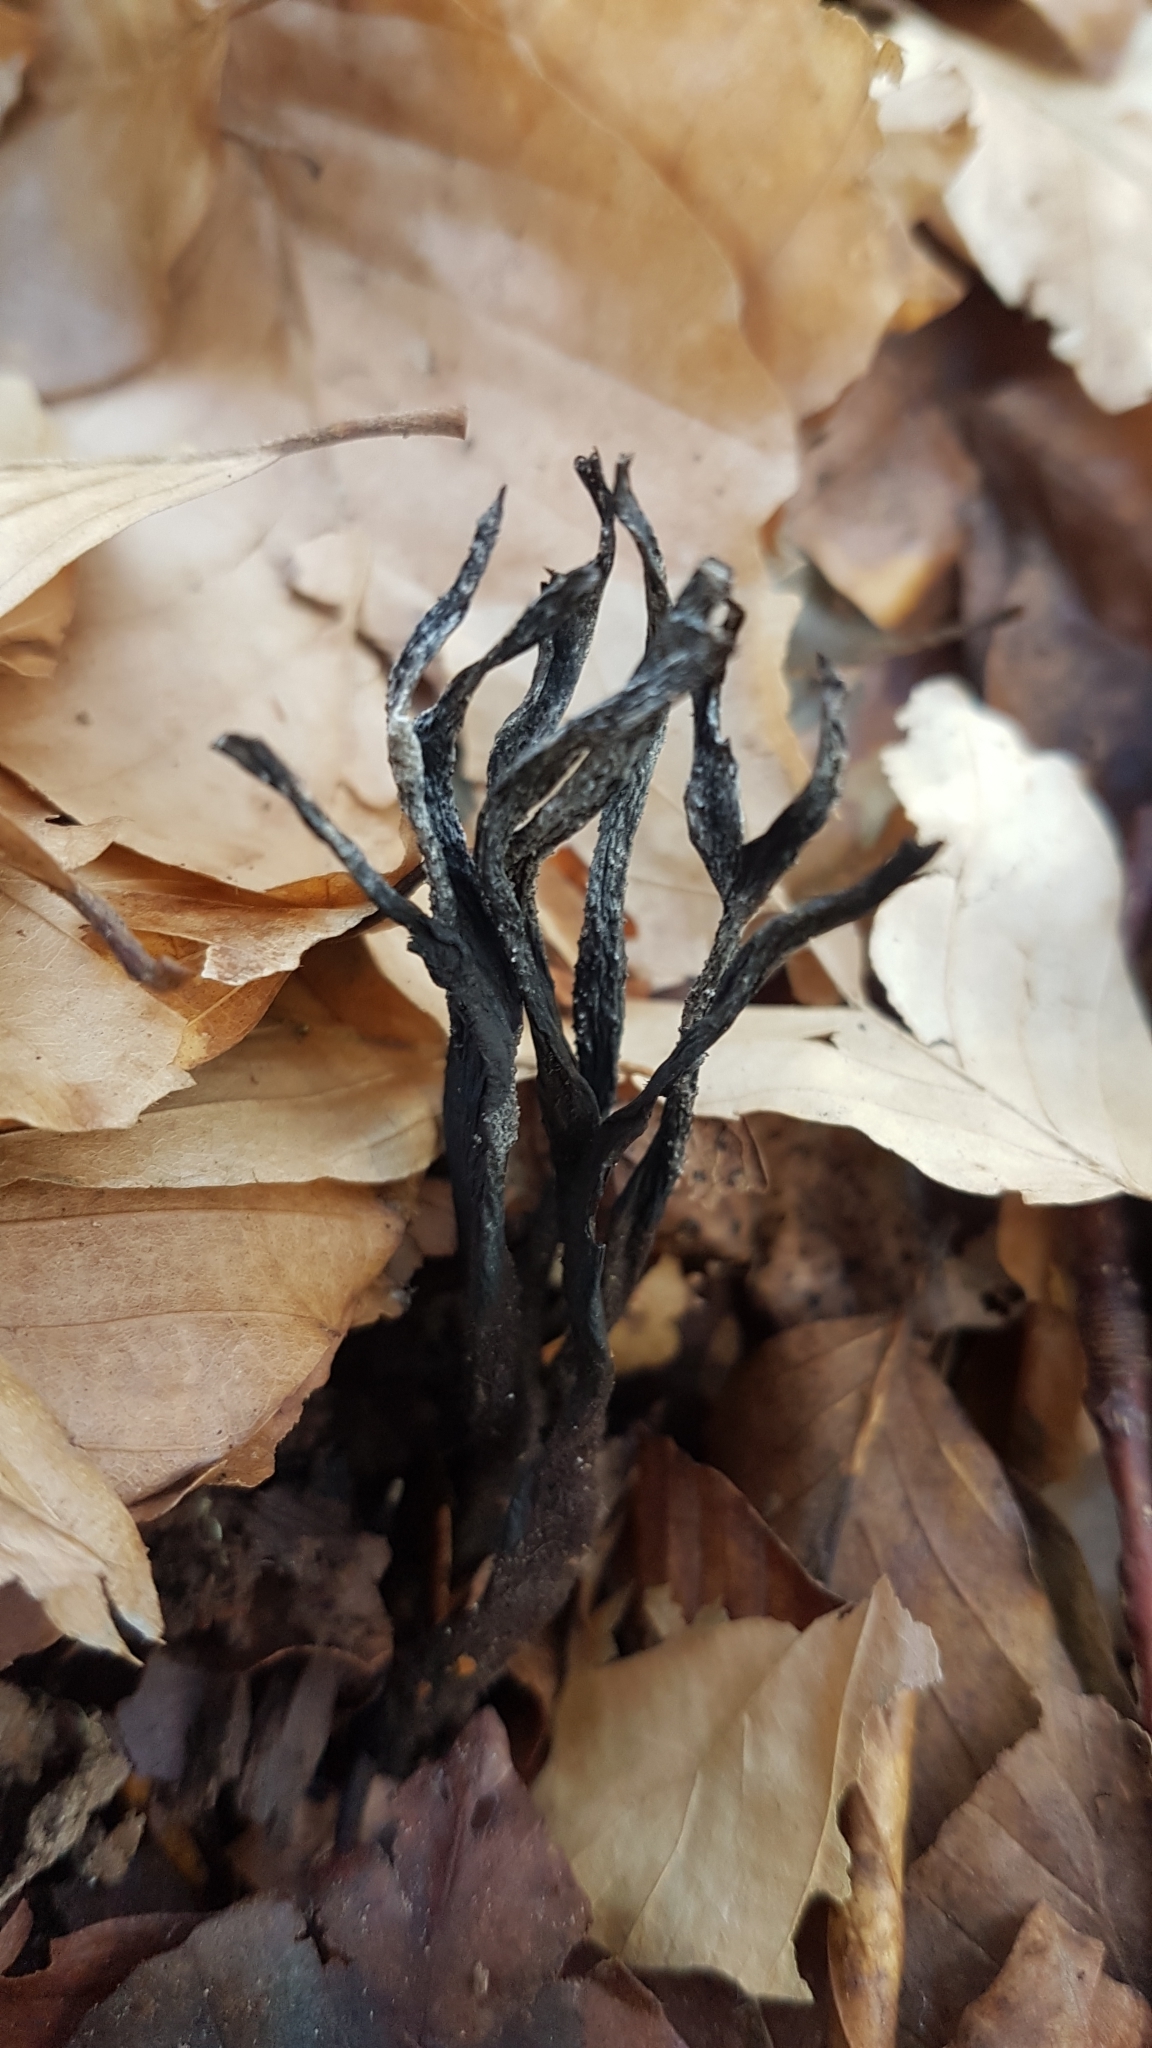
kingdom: Fungi
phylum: Ascomycota
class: Sordariomycetes
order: Xylariales
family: Xylariaceae
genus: Xylaria
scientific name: Xylaria hypoxylon
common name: Candle-snuff fungus
